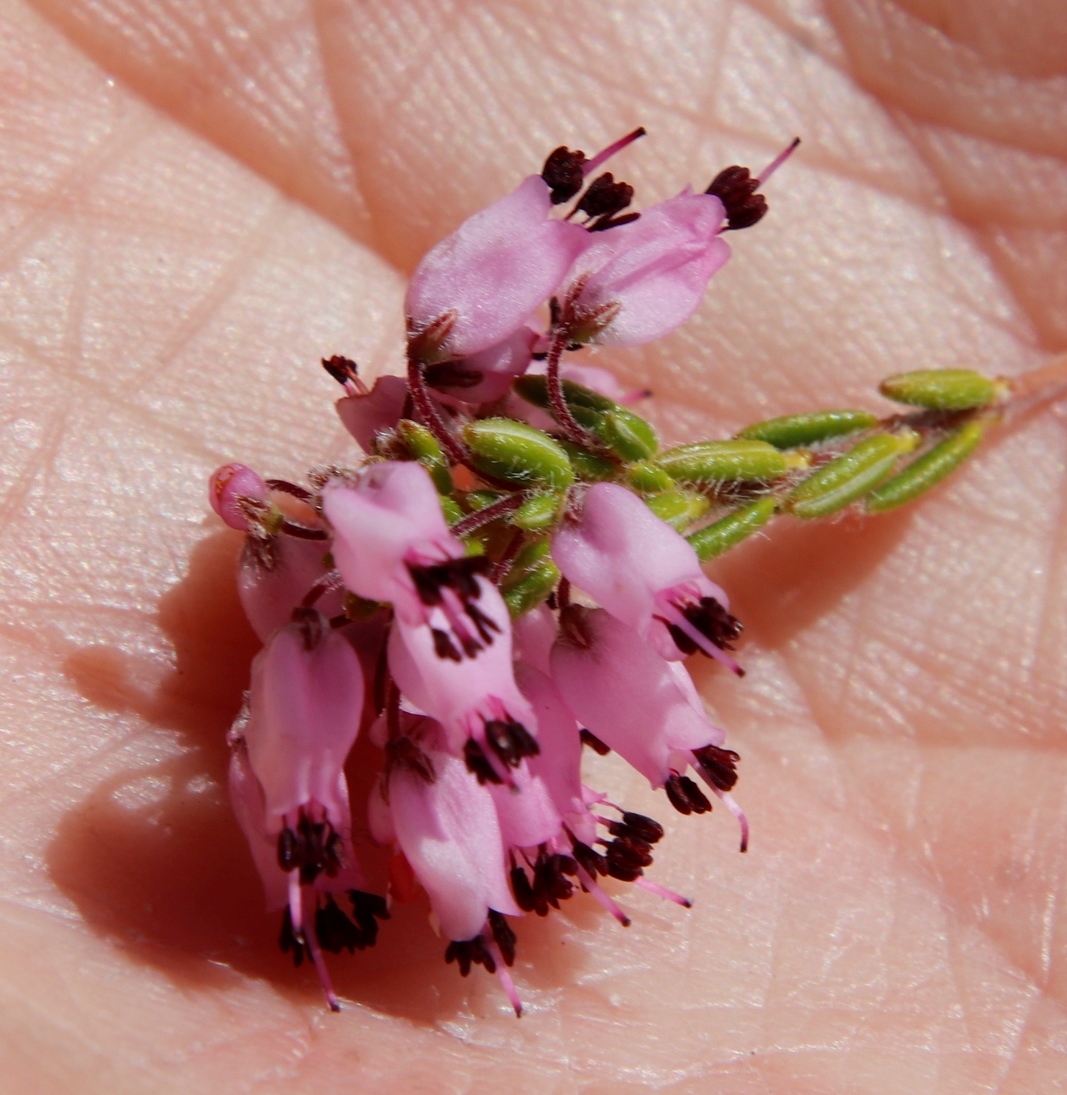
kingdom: Plantae
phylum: Tracheophyta
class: Magnoliopsida
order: Ericales
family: Ericaceae
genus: Erica
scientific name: Erica nudiflora
